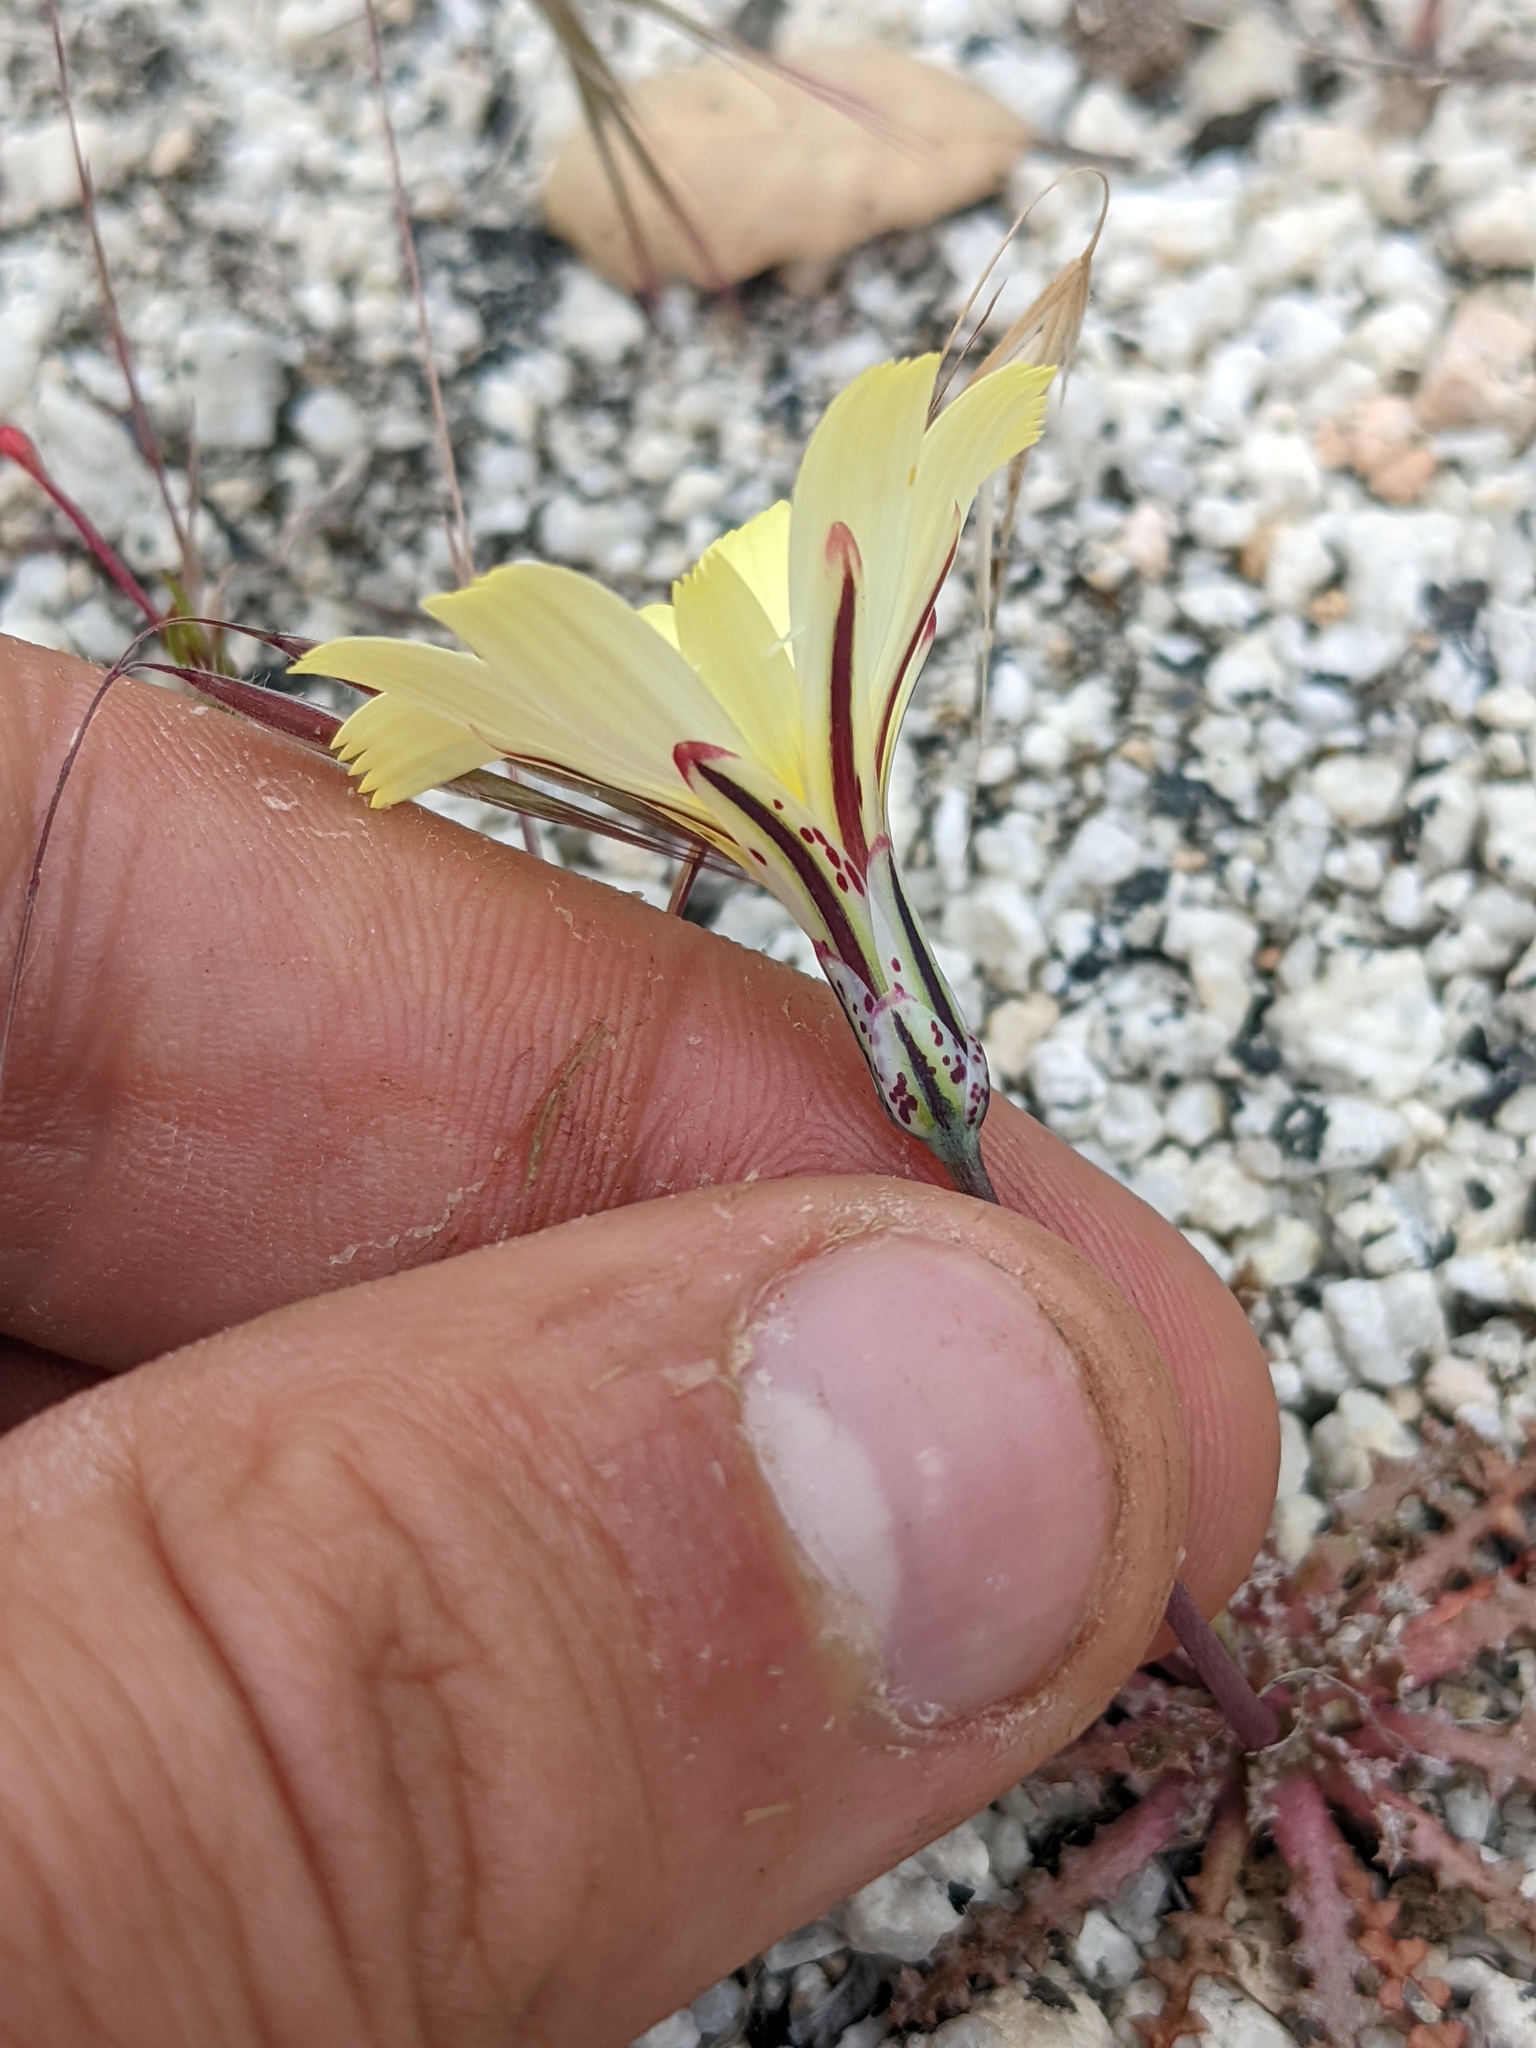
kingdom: Plantae
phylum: Tracheophyta
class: Magnoliopsida
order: Asterales
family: Asteraceae
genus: Anisocoma
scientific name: Anisocoma acaulis
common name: Scalebud
